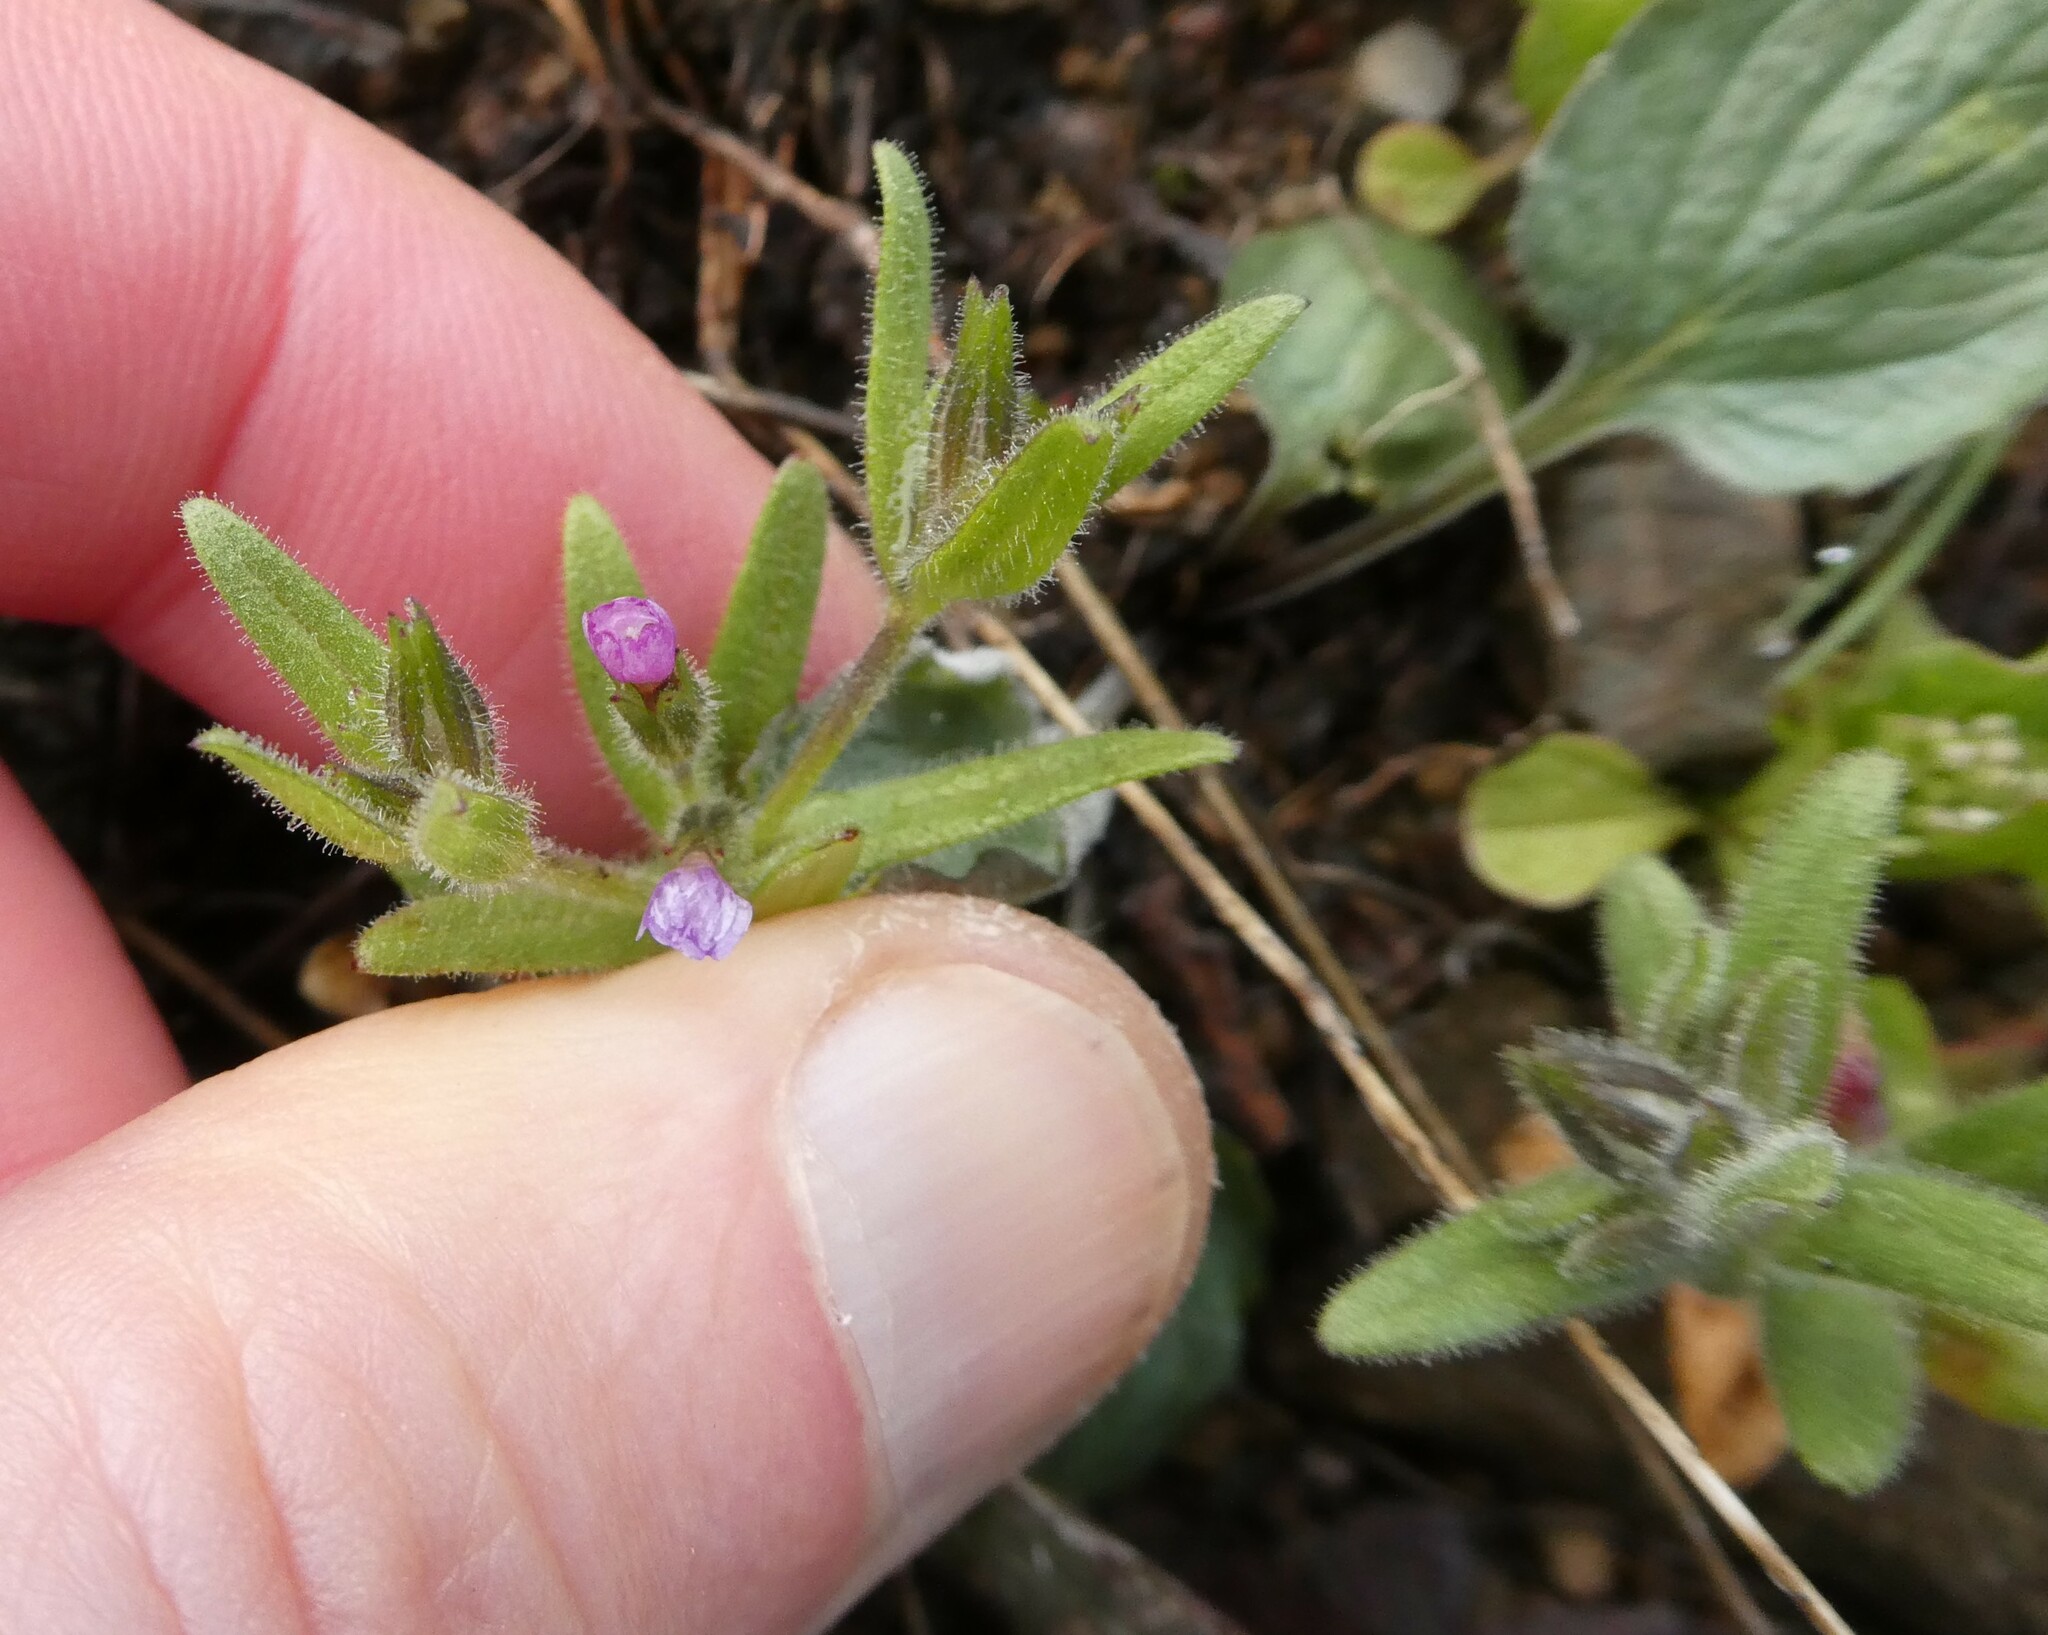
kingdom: Plantae
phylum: Tracheophyta
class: Magnoliopsida
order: Ericales
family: Polemoniaceae
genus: Phlox
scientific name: Phlox gracilis
